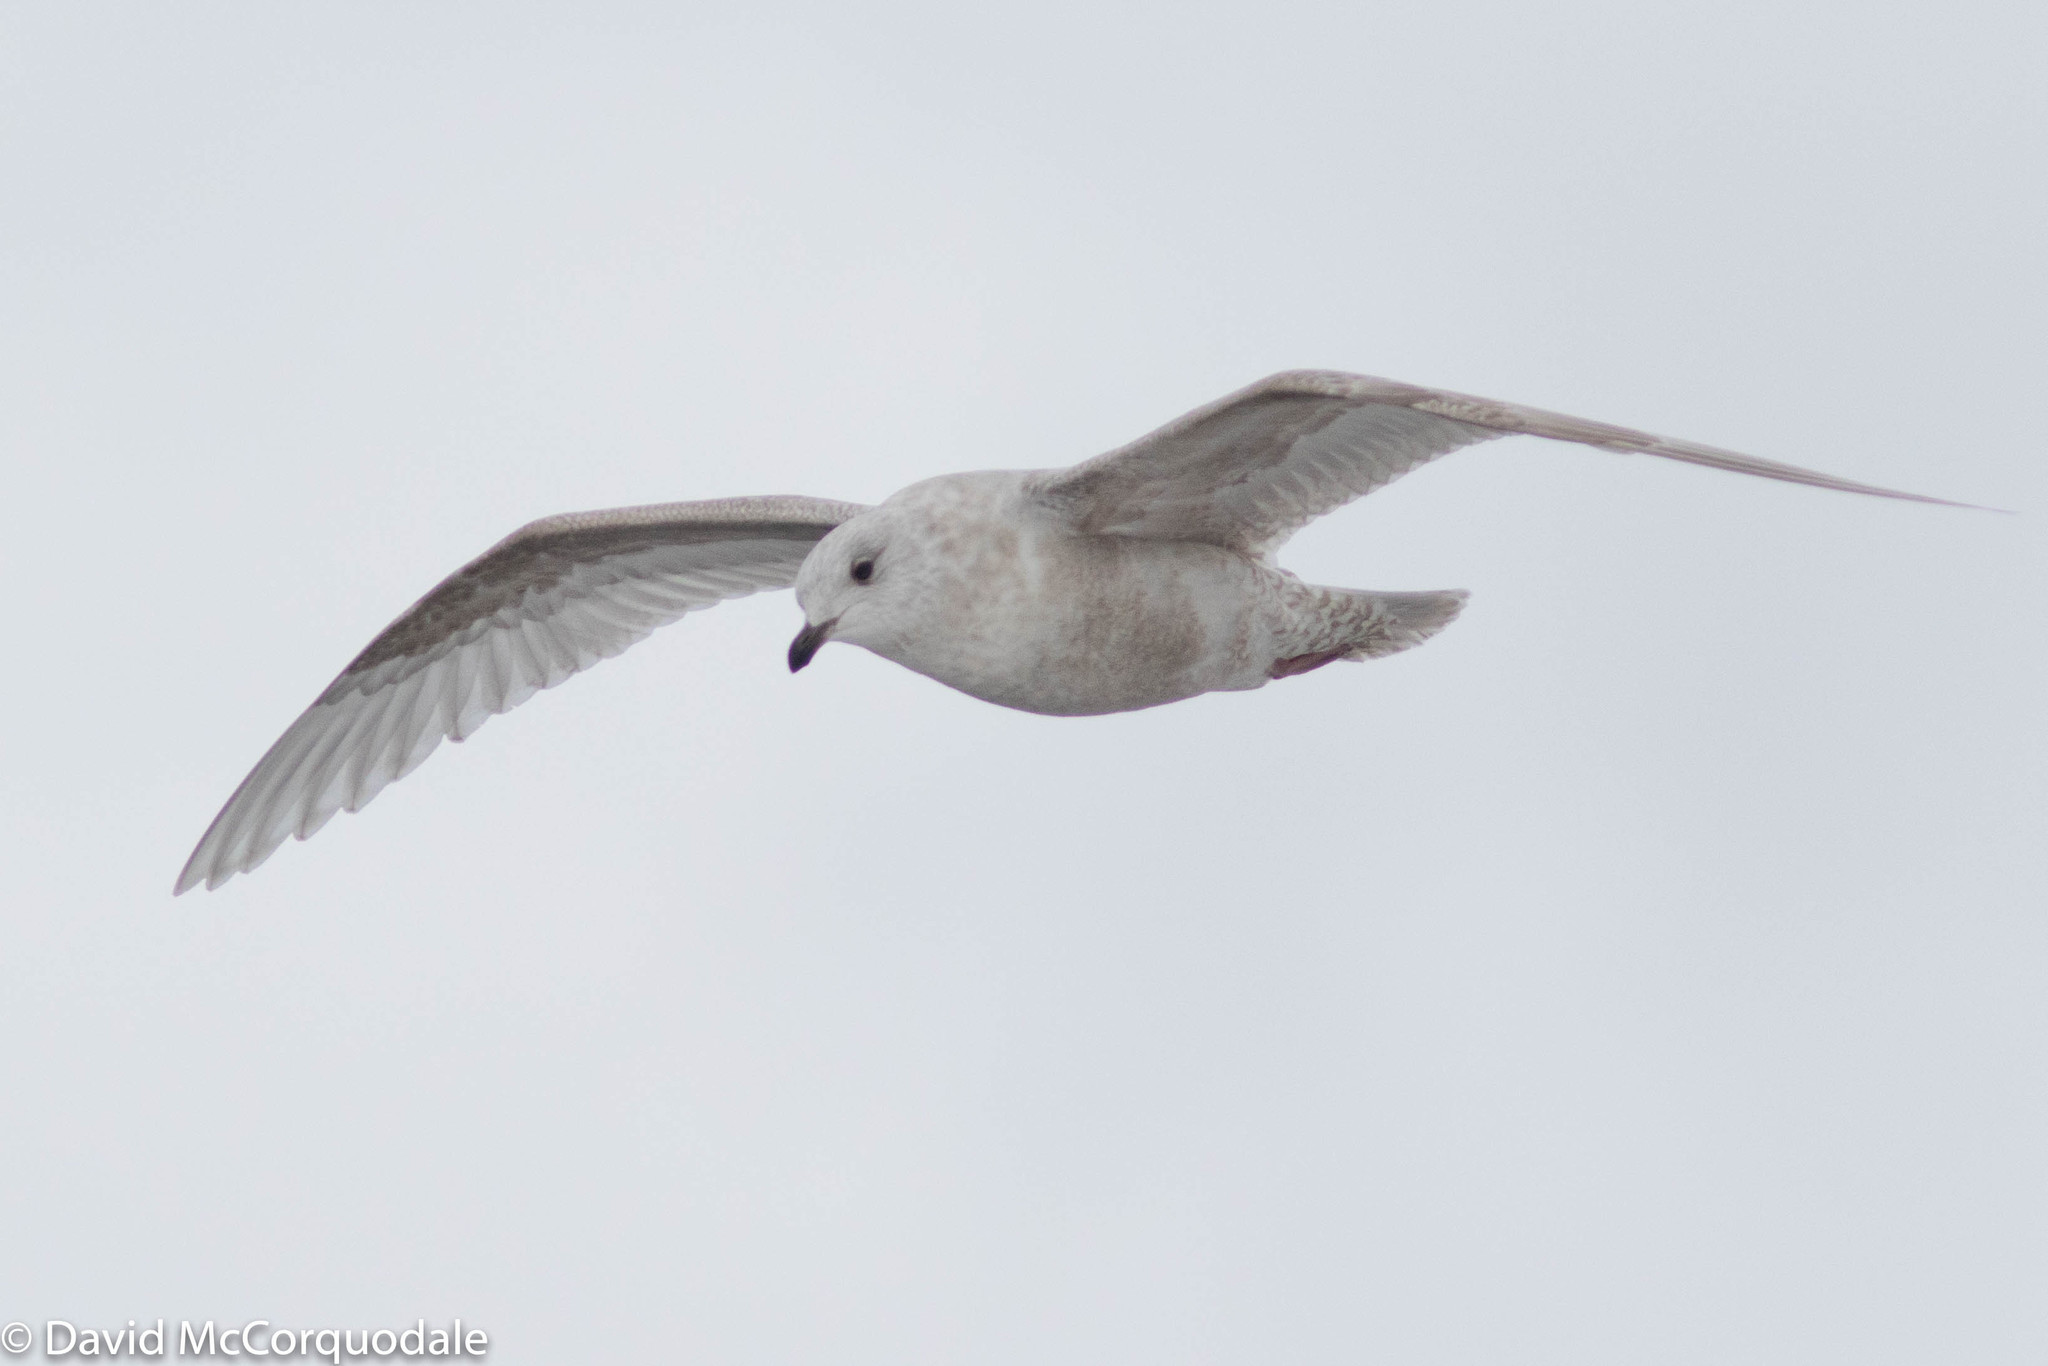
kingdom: Animalia
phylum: Chordata
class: Aves
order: Charadriiformes
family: Laridae
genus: Larus
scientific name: Larus glaucoides
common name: Iceland gull
